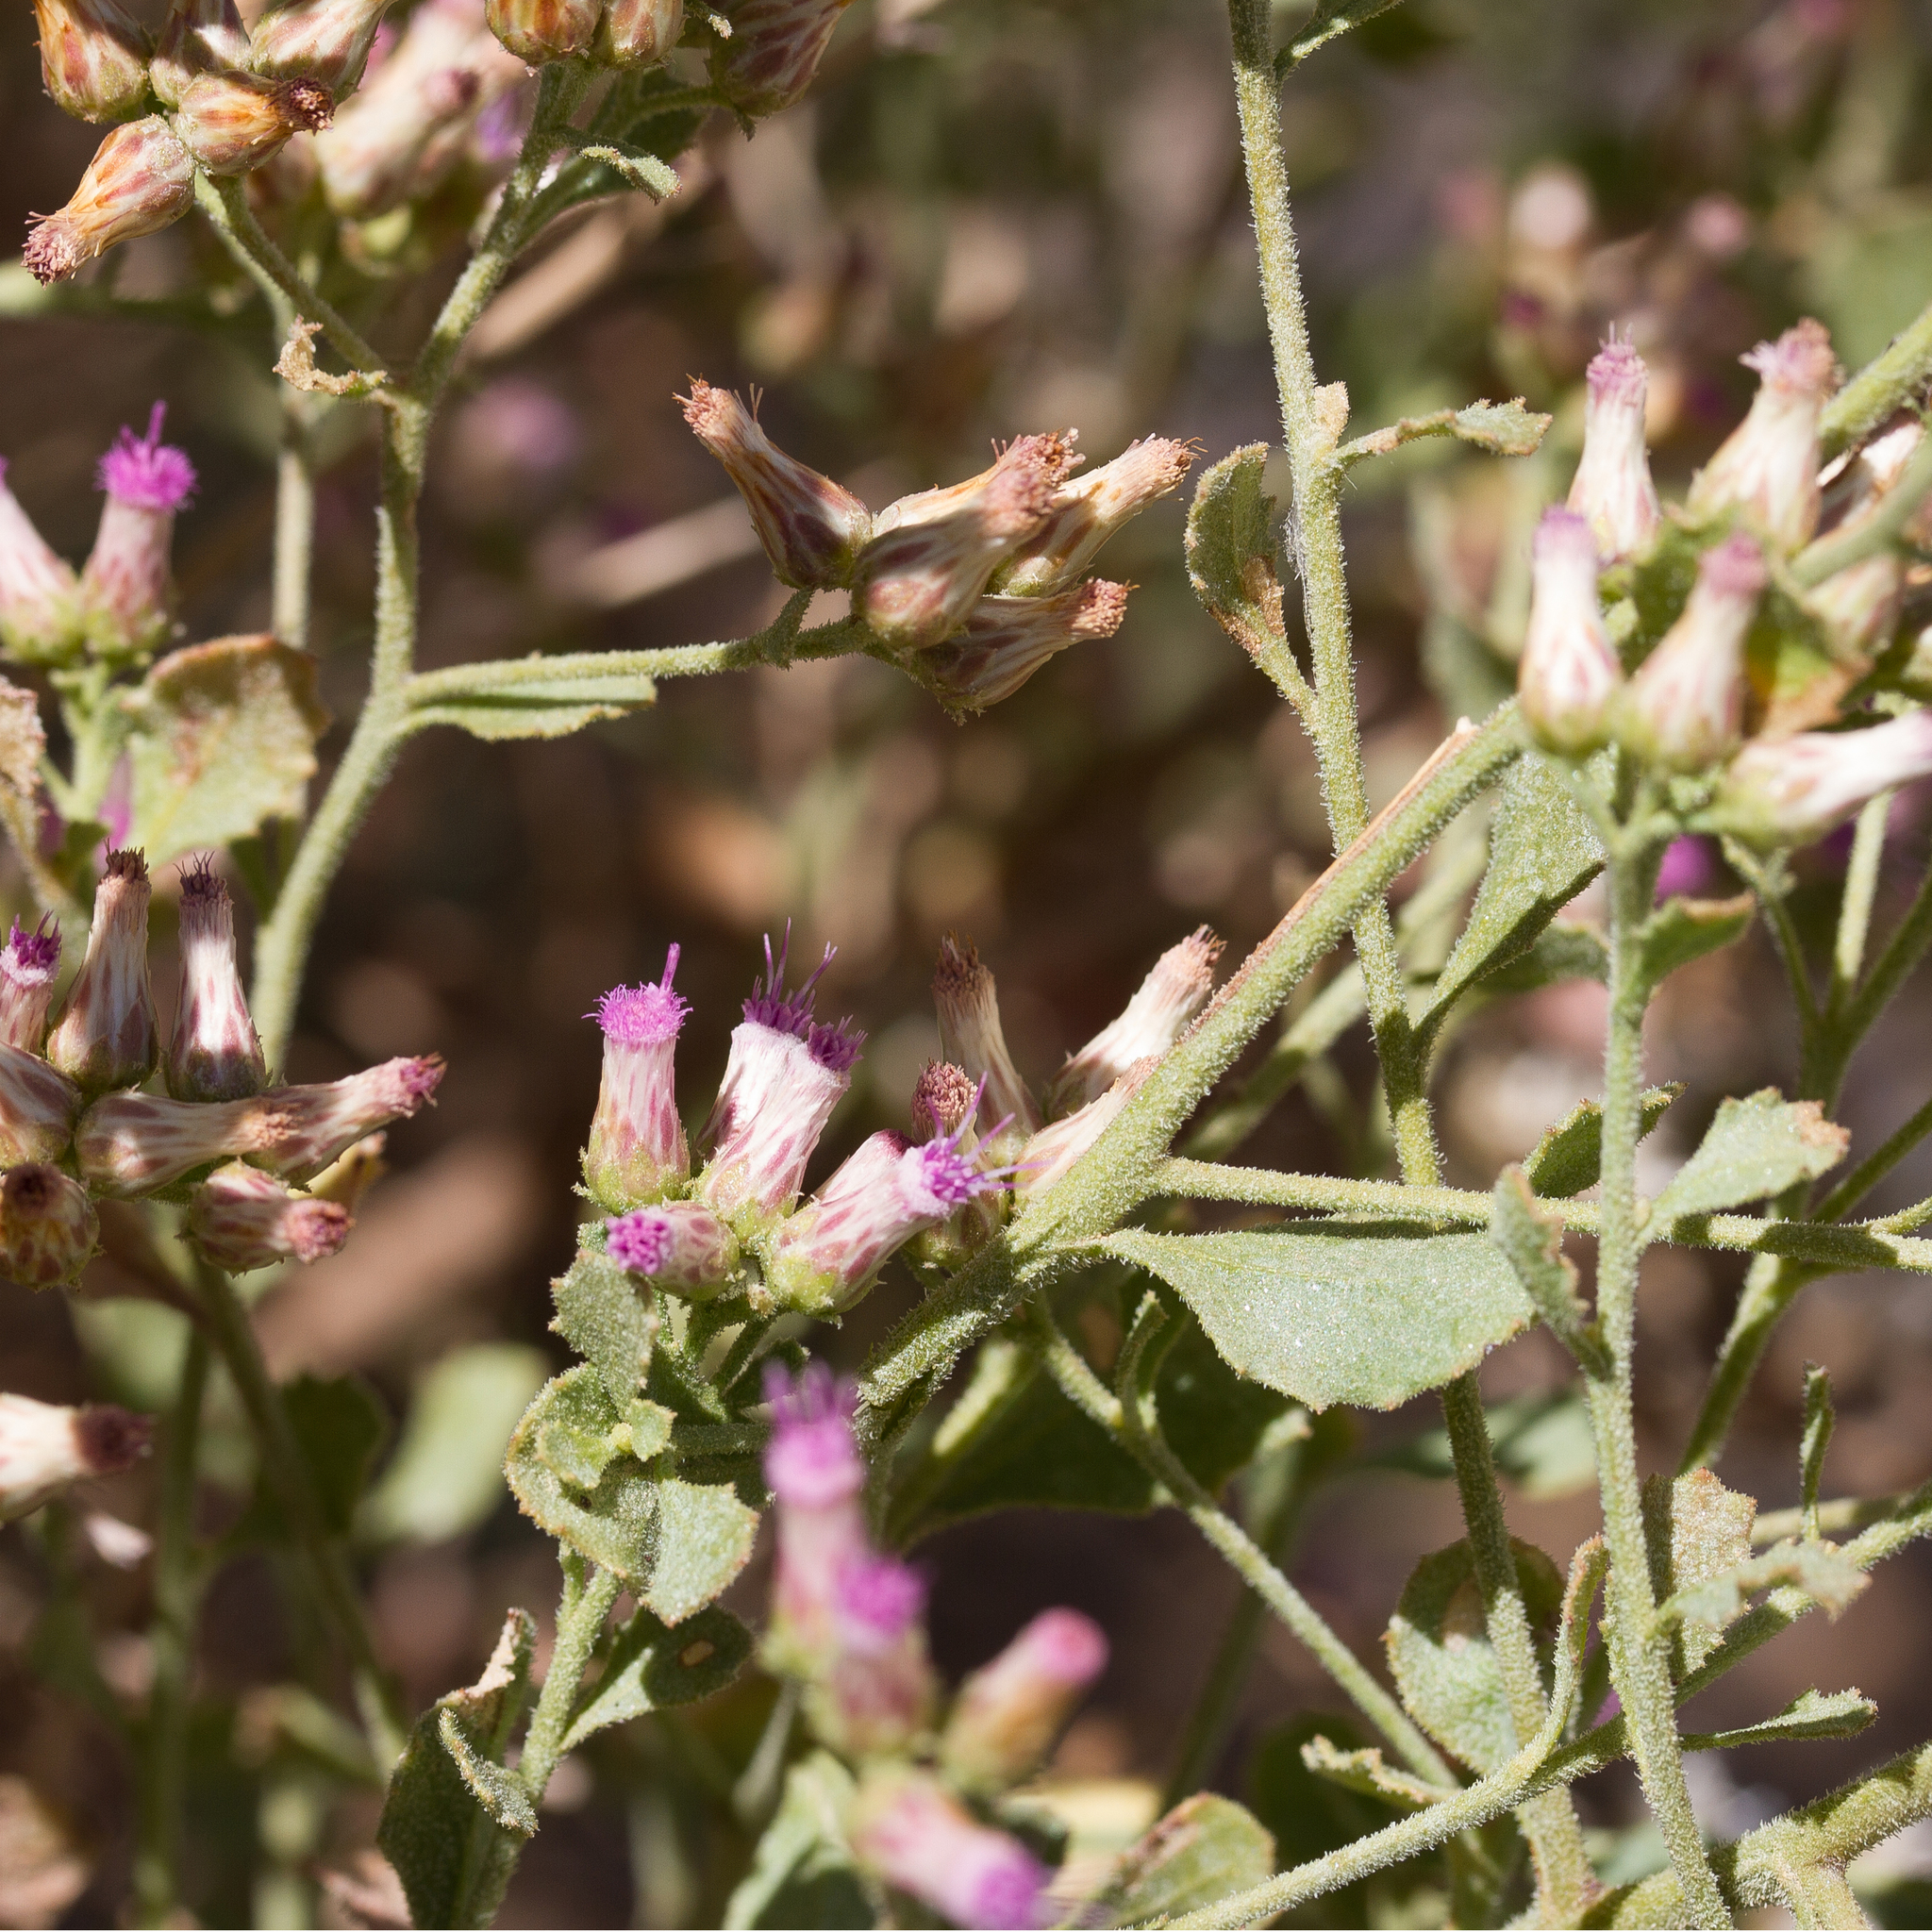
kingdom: Plantae
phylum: Tracheophyta
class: Magnoliopsida
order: Asterales
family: Asteraceae
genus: Pluchea
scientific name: Pluchea dunlopii
